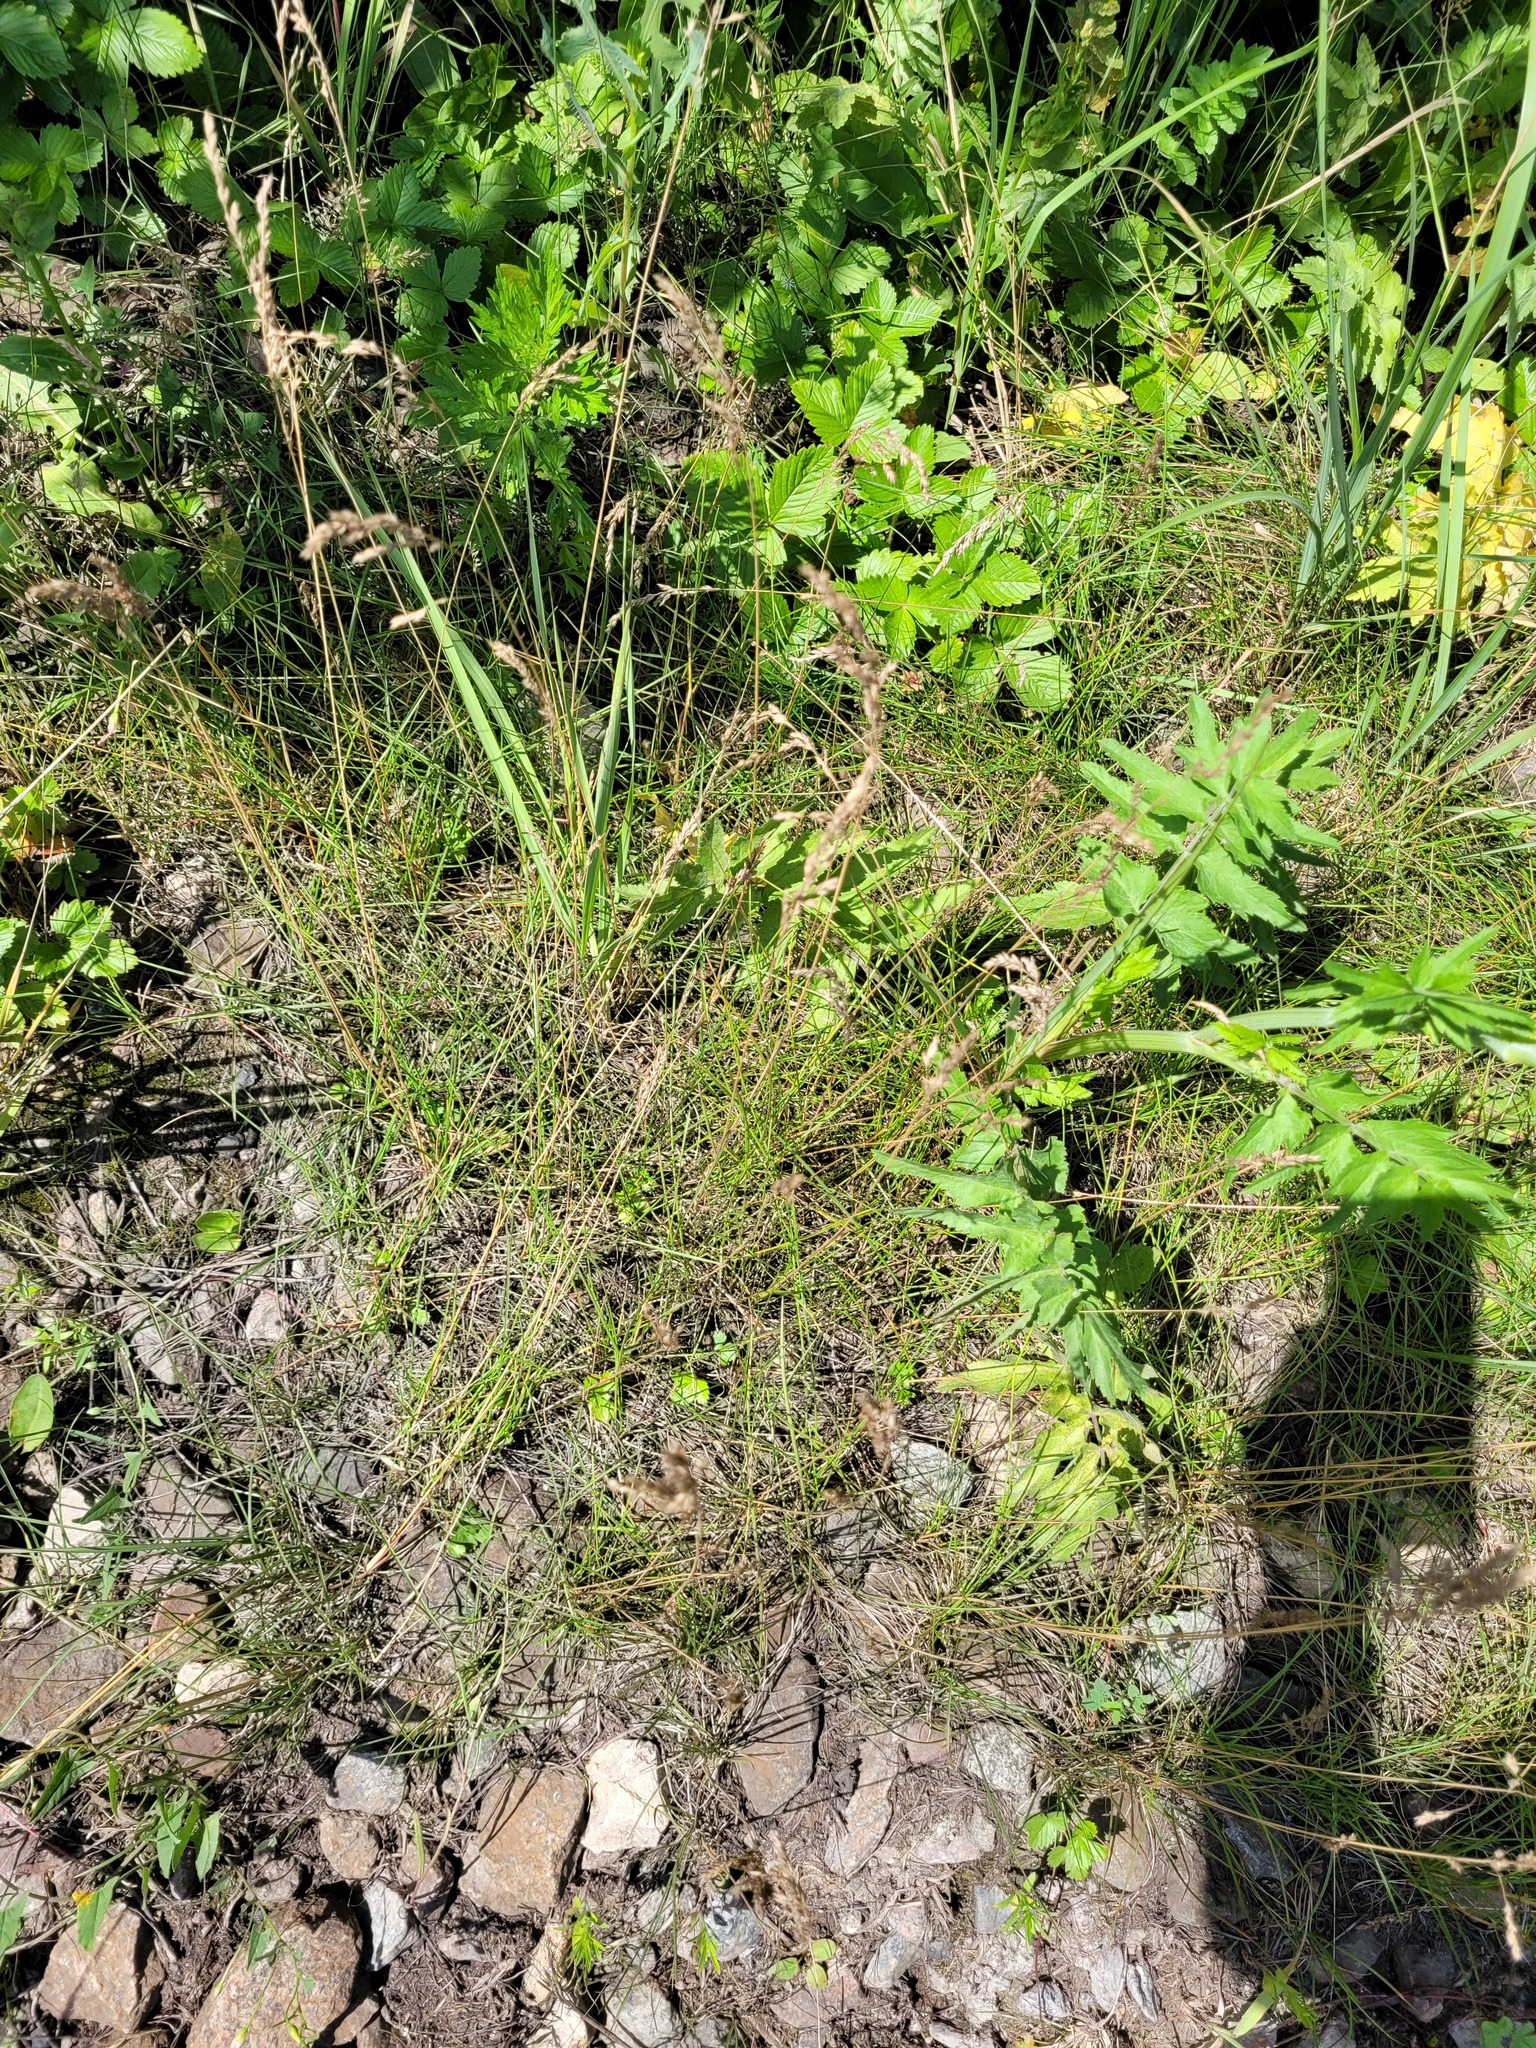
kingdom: Plantae
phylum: Tracheophyta
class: Liliopsida
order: Poales
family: Poaceae
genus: Poa
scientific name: Poa angustifolia
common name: Narrow-leaved meadow-grass
